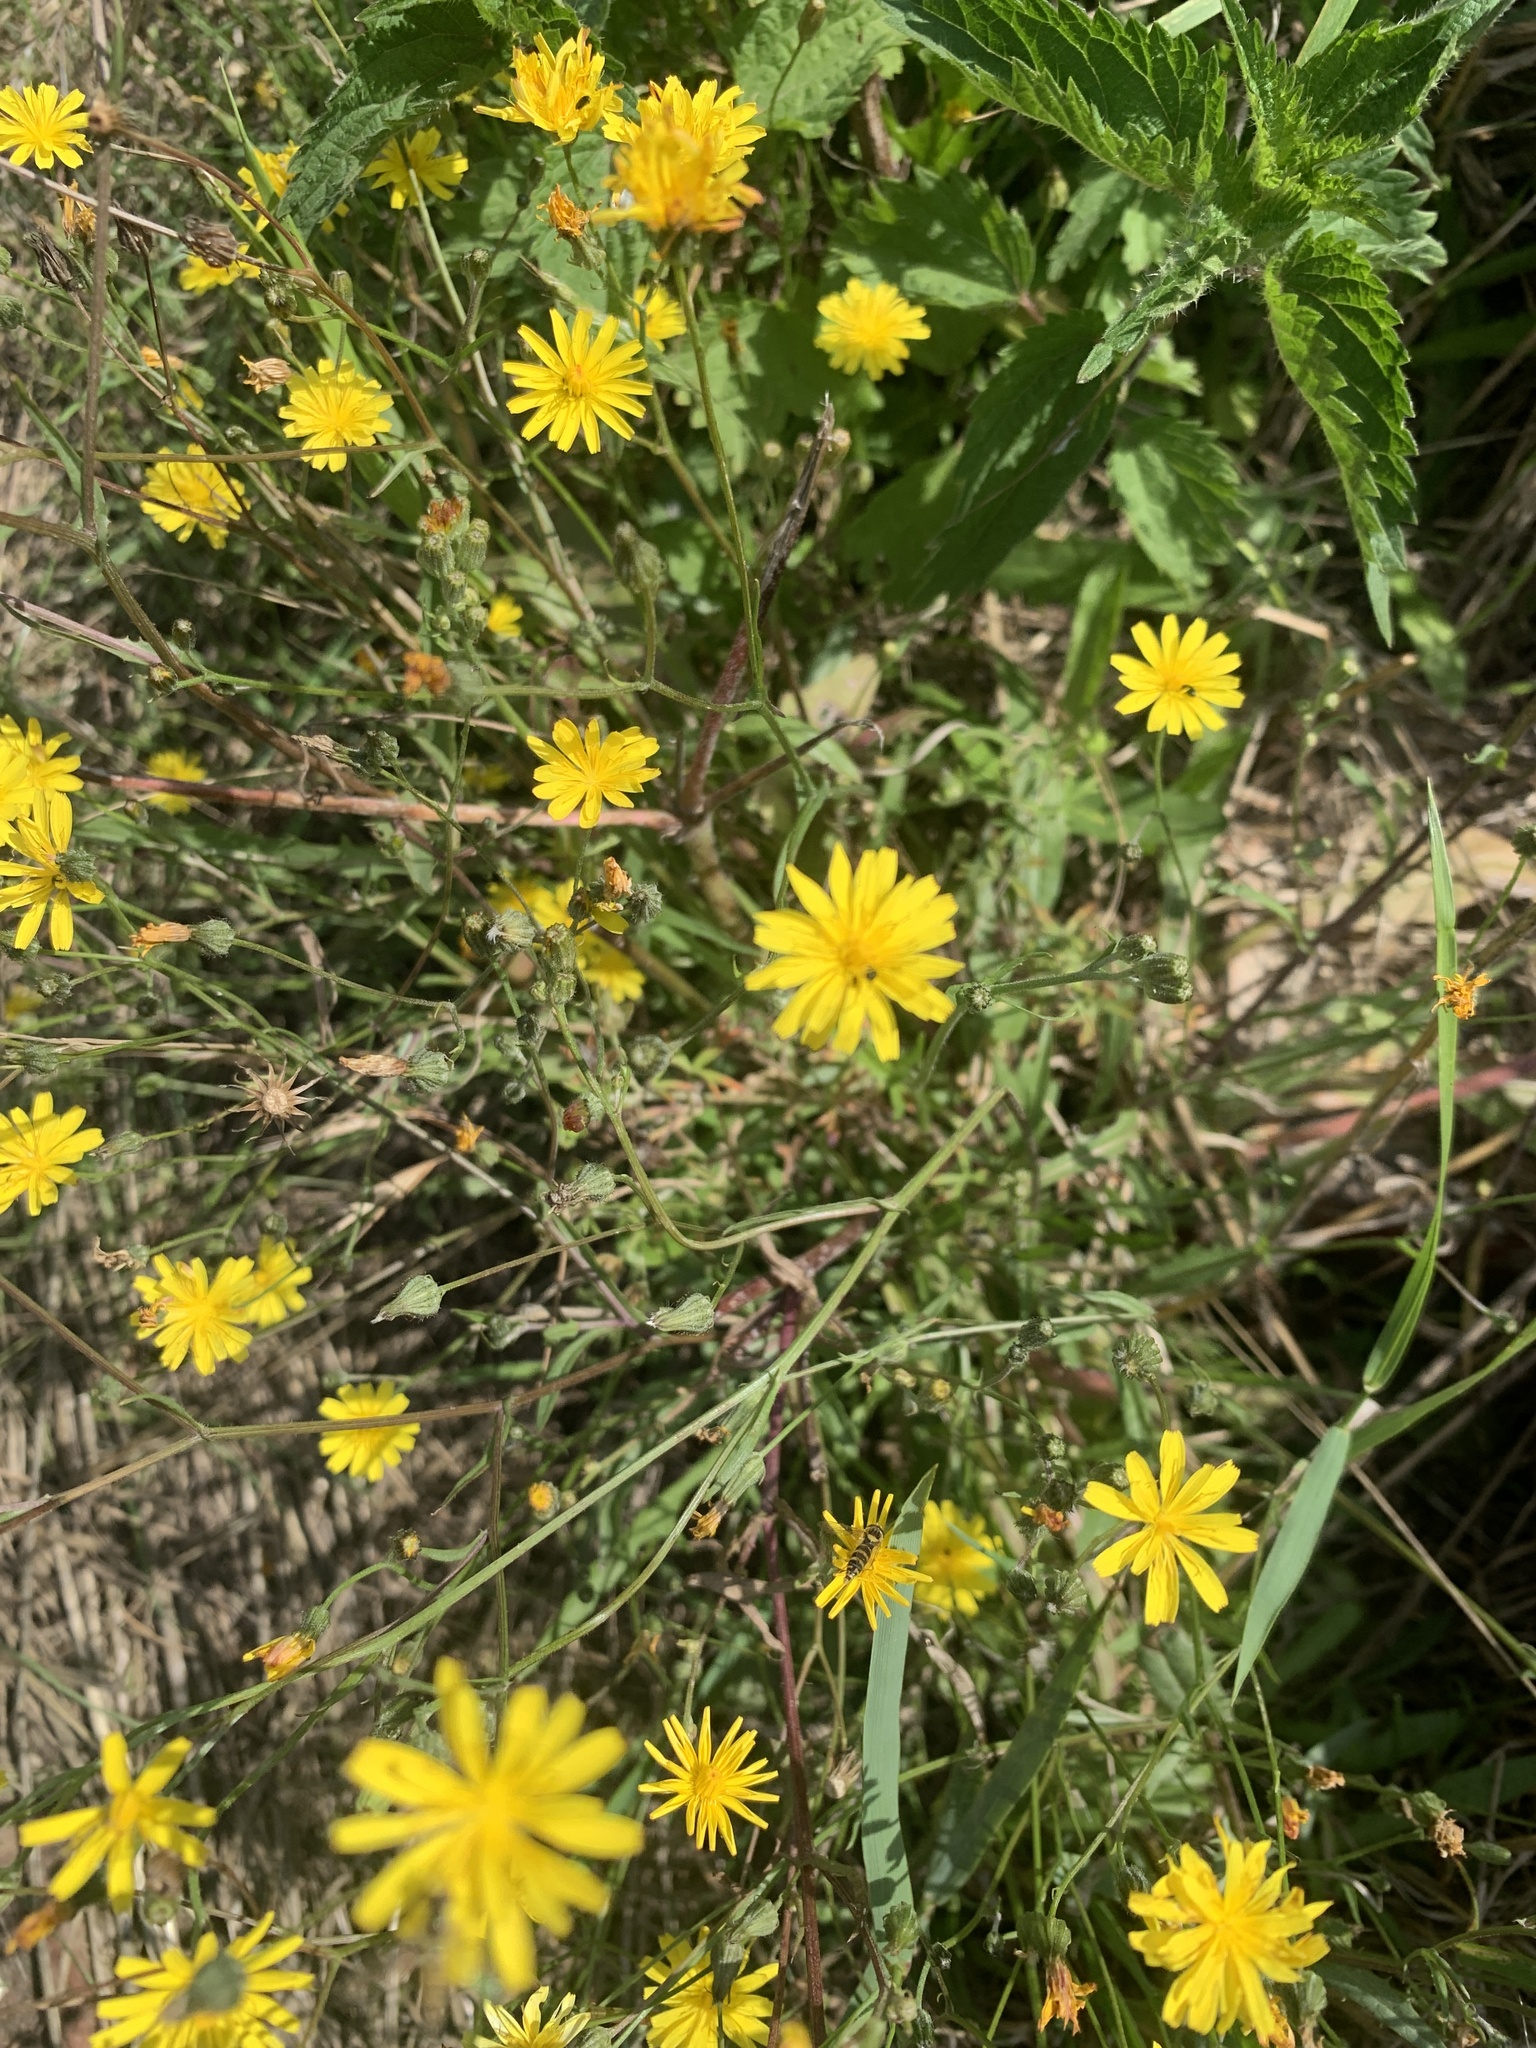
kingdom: Plantae
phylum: Tracheophyta
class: Magnoliopsida
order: Asterales
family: Asteraceae
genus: Crepis
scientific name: Crepis capillaris
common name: Smooth hawksbeard
